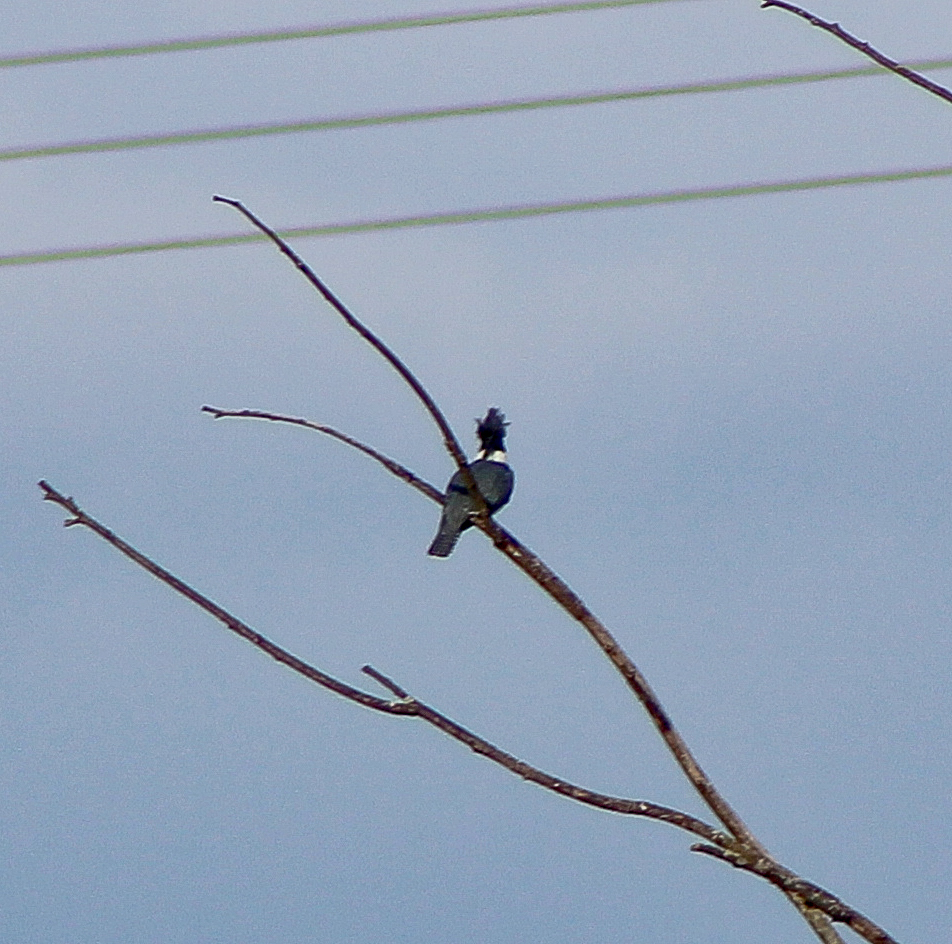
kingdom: Animalia
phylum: Chordata
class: Aves
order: Coraciiformes
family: Alcedinidae
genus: Megaceryle
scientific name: Megaceryle alcyon
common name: Belted kingfisher
